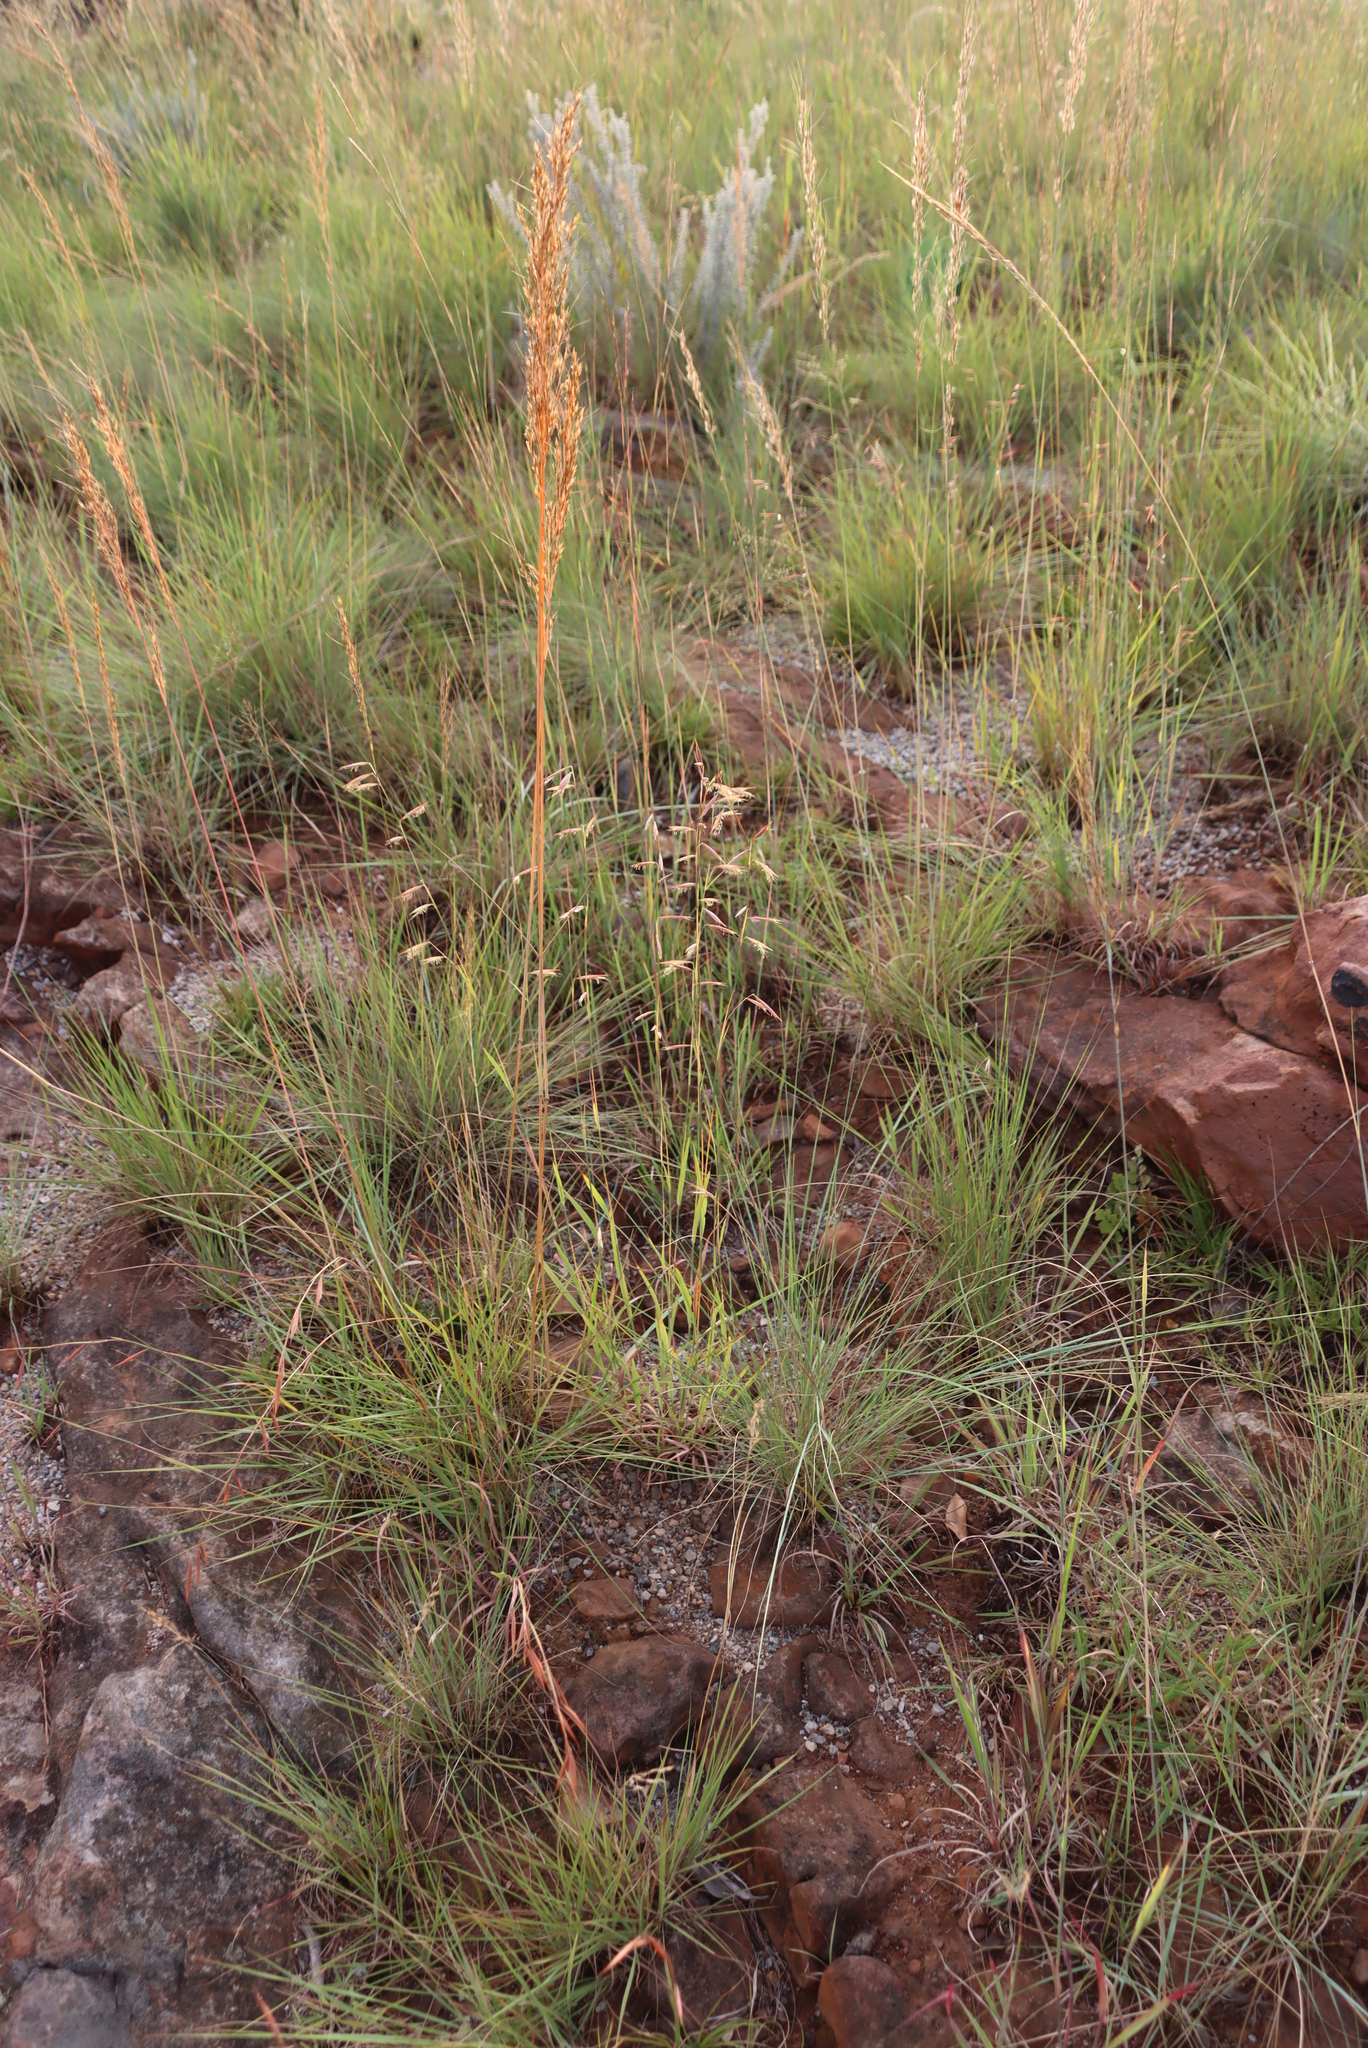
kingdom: Plantae
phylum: Tracheophyta
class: Liliopsida
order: Poales
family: Poaceae
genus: Monocymbium
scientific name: Monocymbium ceresiiforme
